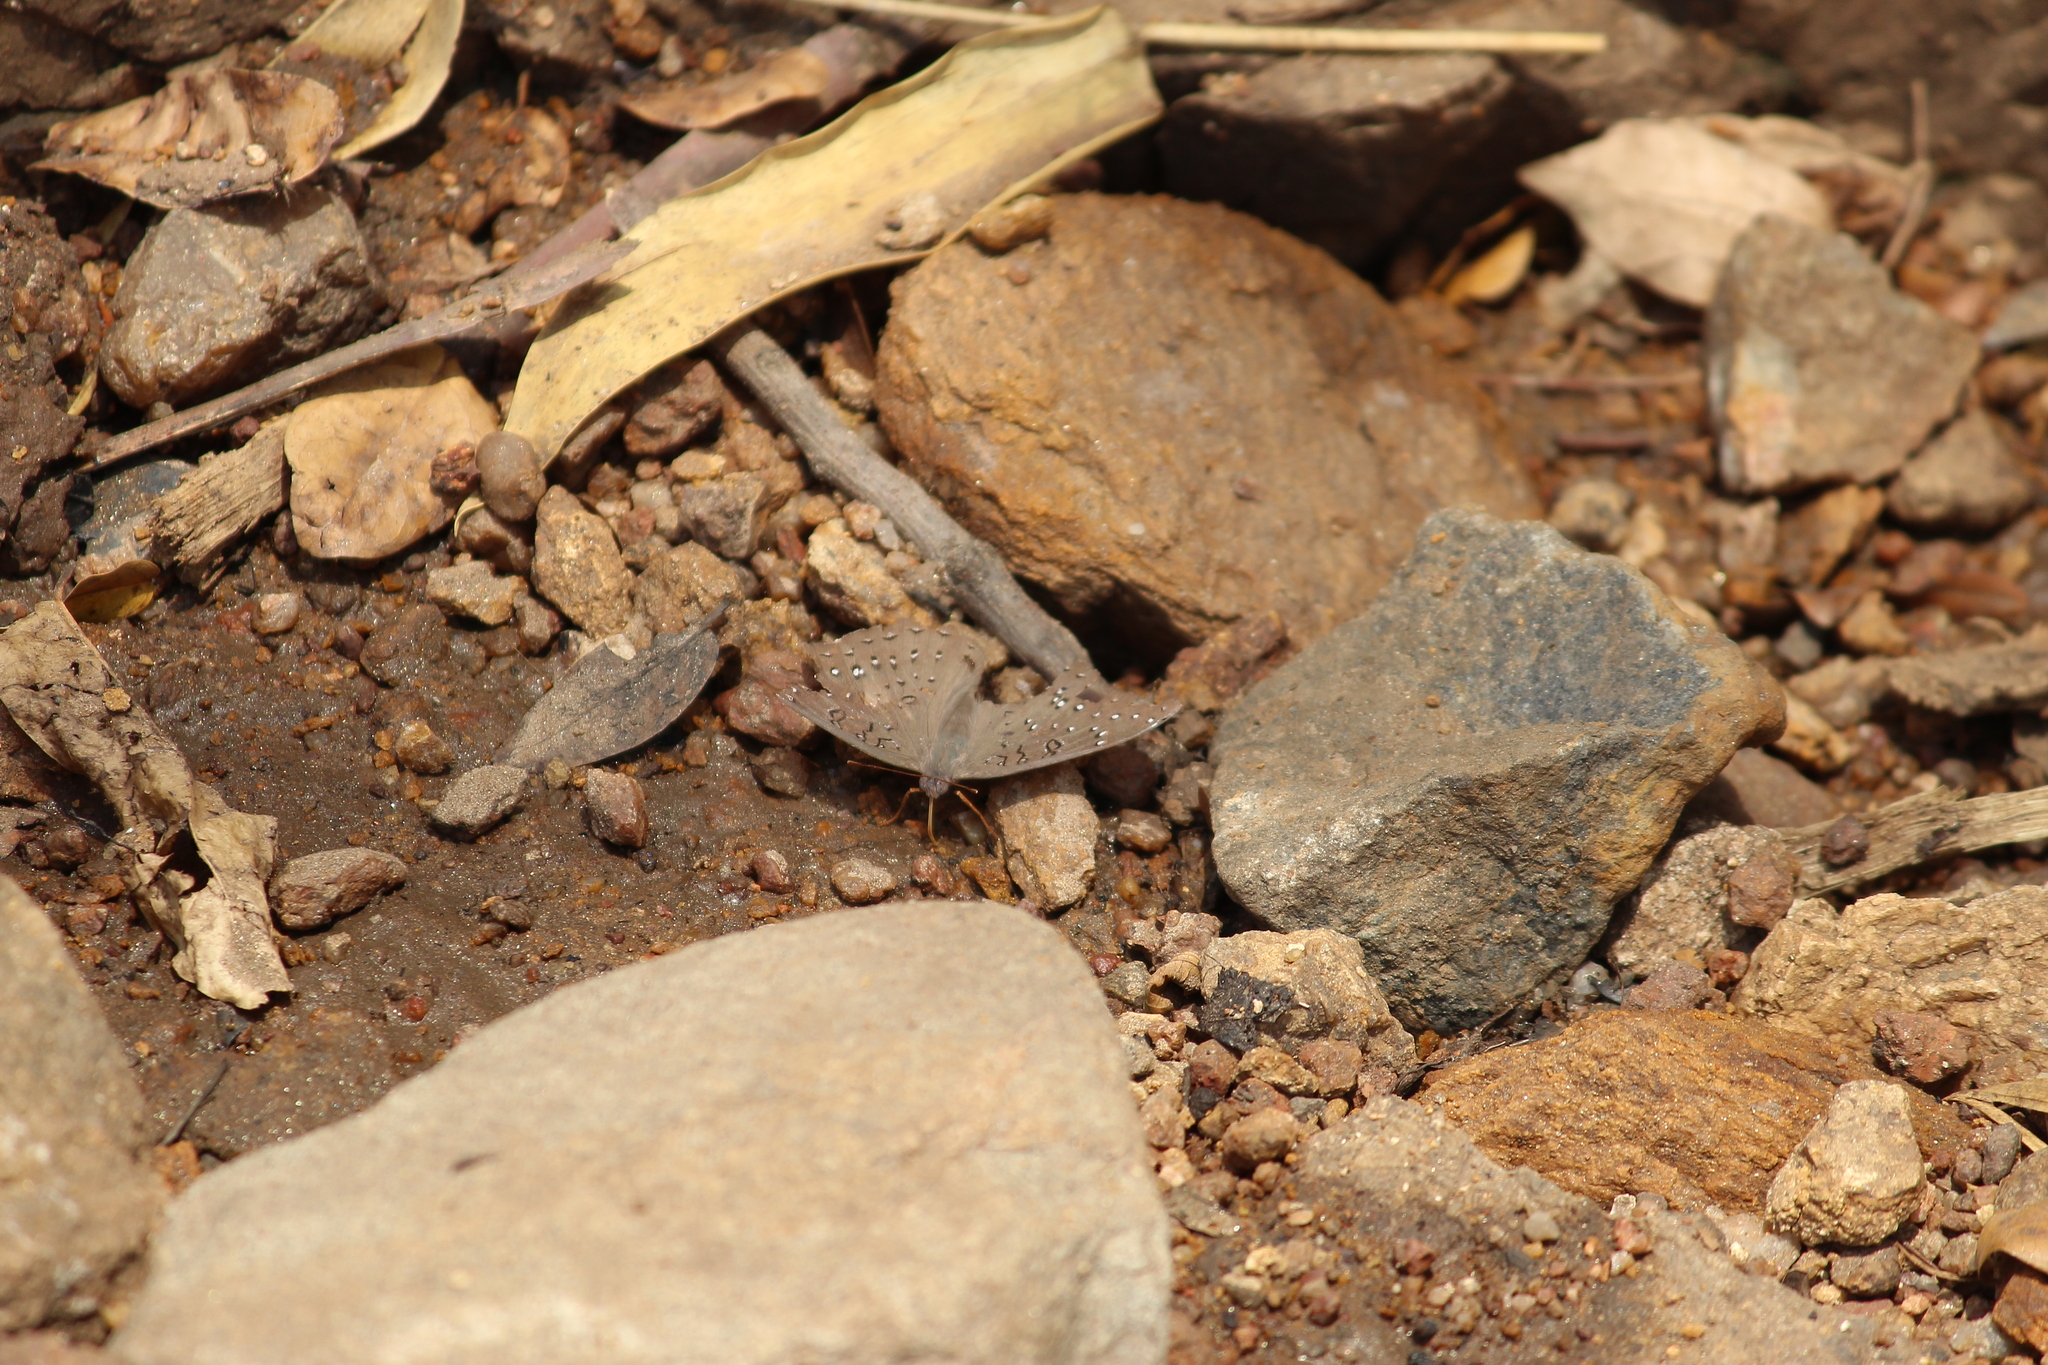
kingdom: Animalia
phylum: Arthropoda
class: Insecta
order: Lepidoptera
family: Nymphalidae
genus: Hamanumida
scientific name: Hamanumida daedalus
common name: Guinea-fowl butterfly
